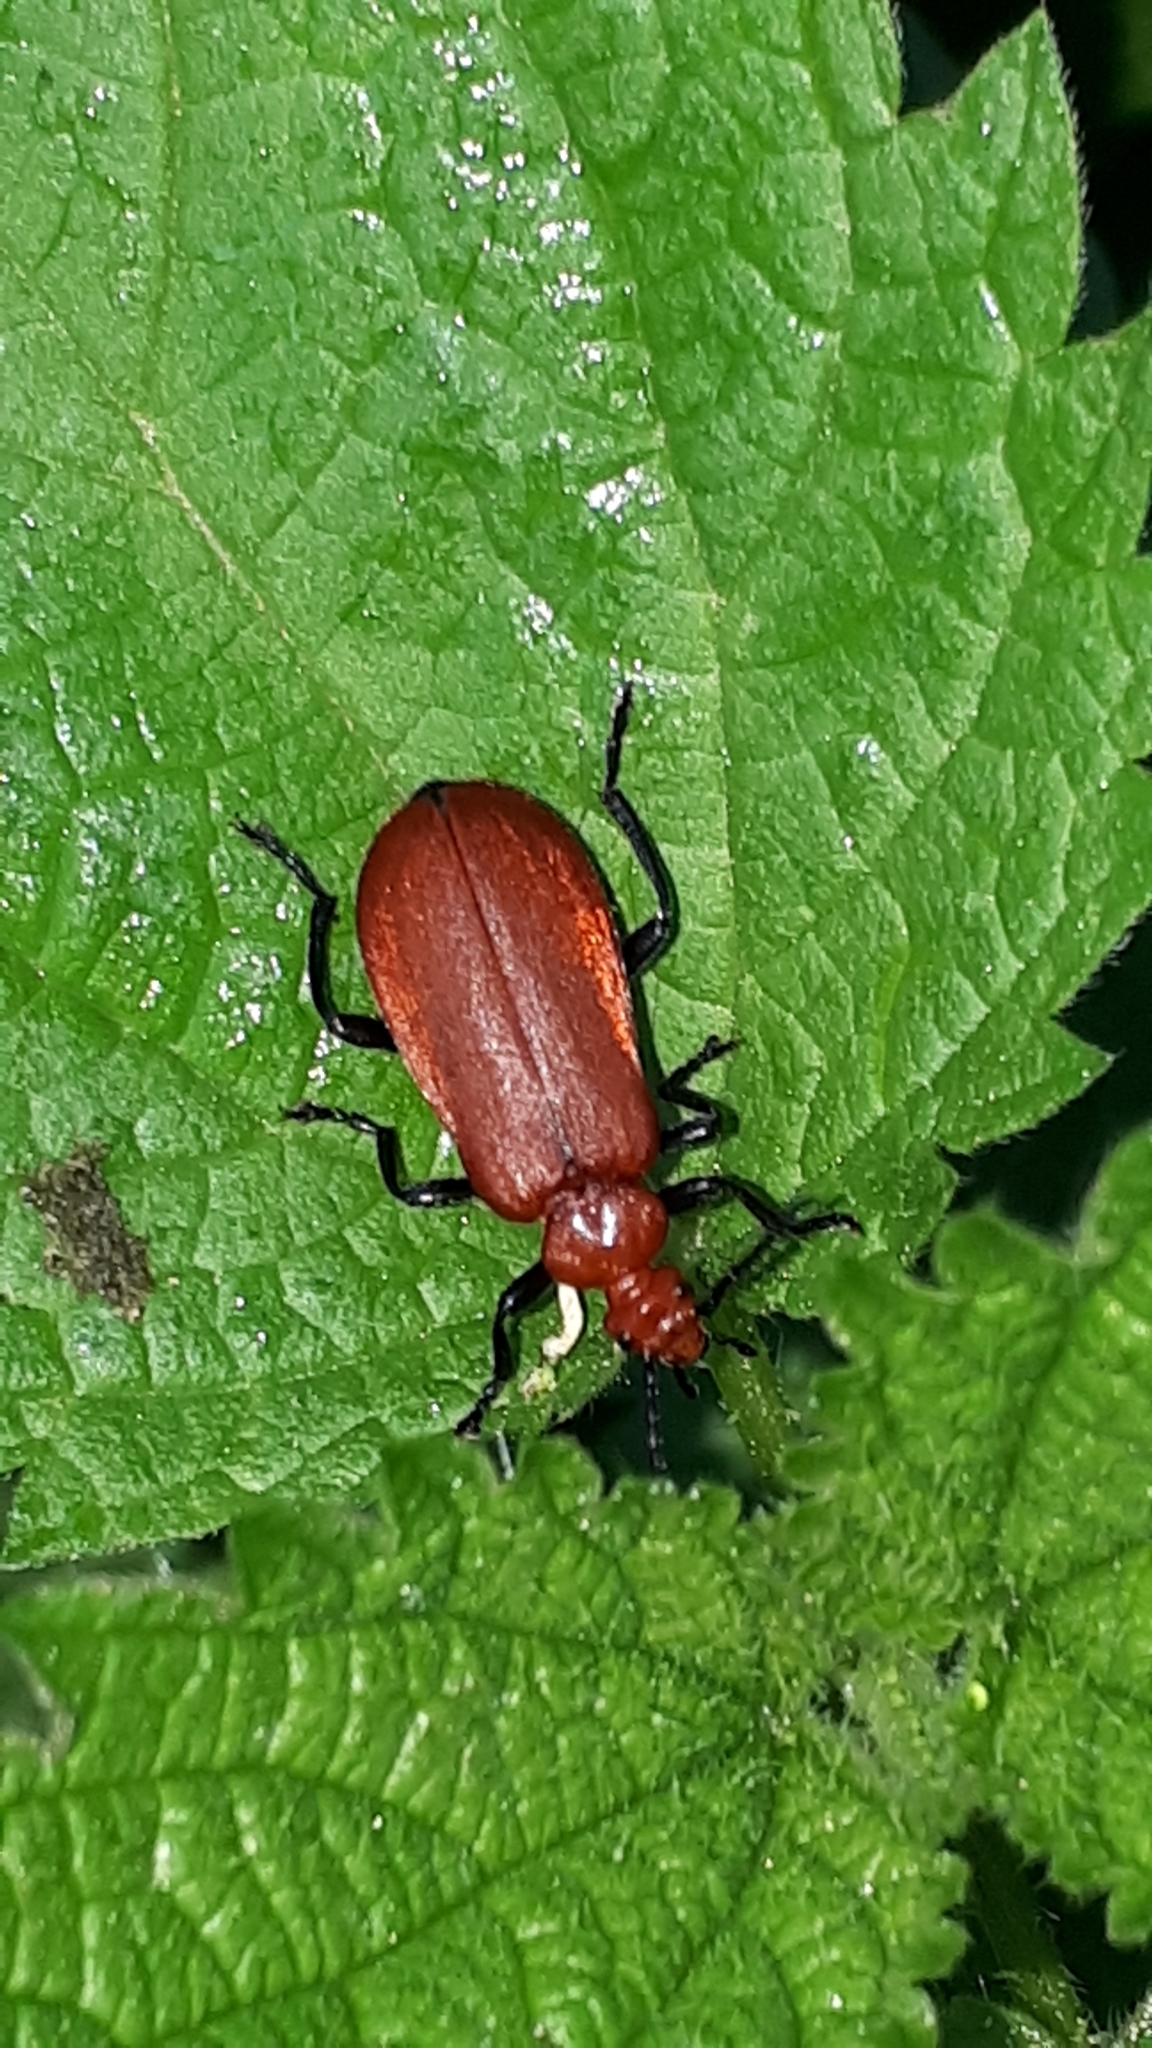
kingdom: Animalia
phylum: Arthropoda
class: Insecta
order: Coleoptera
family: Pyrochroidae
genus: Pyrochroa
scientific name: Pyrochroa serraticornis
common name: Red-headed cardinal beetle
